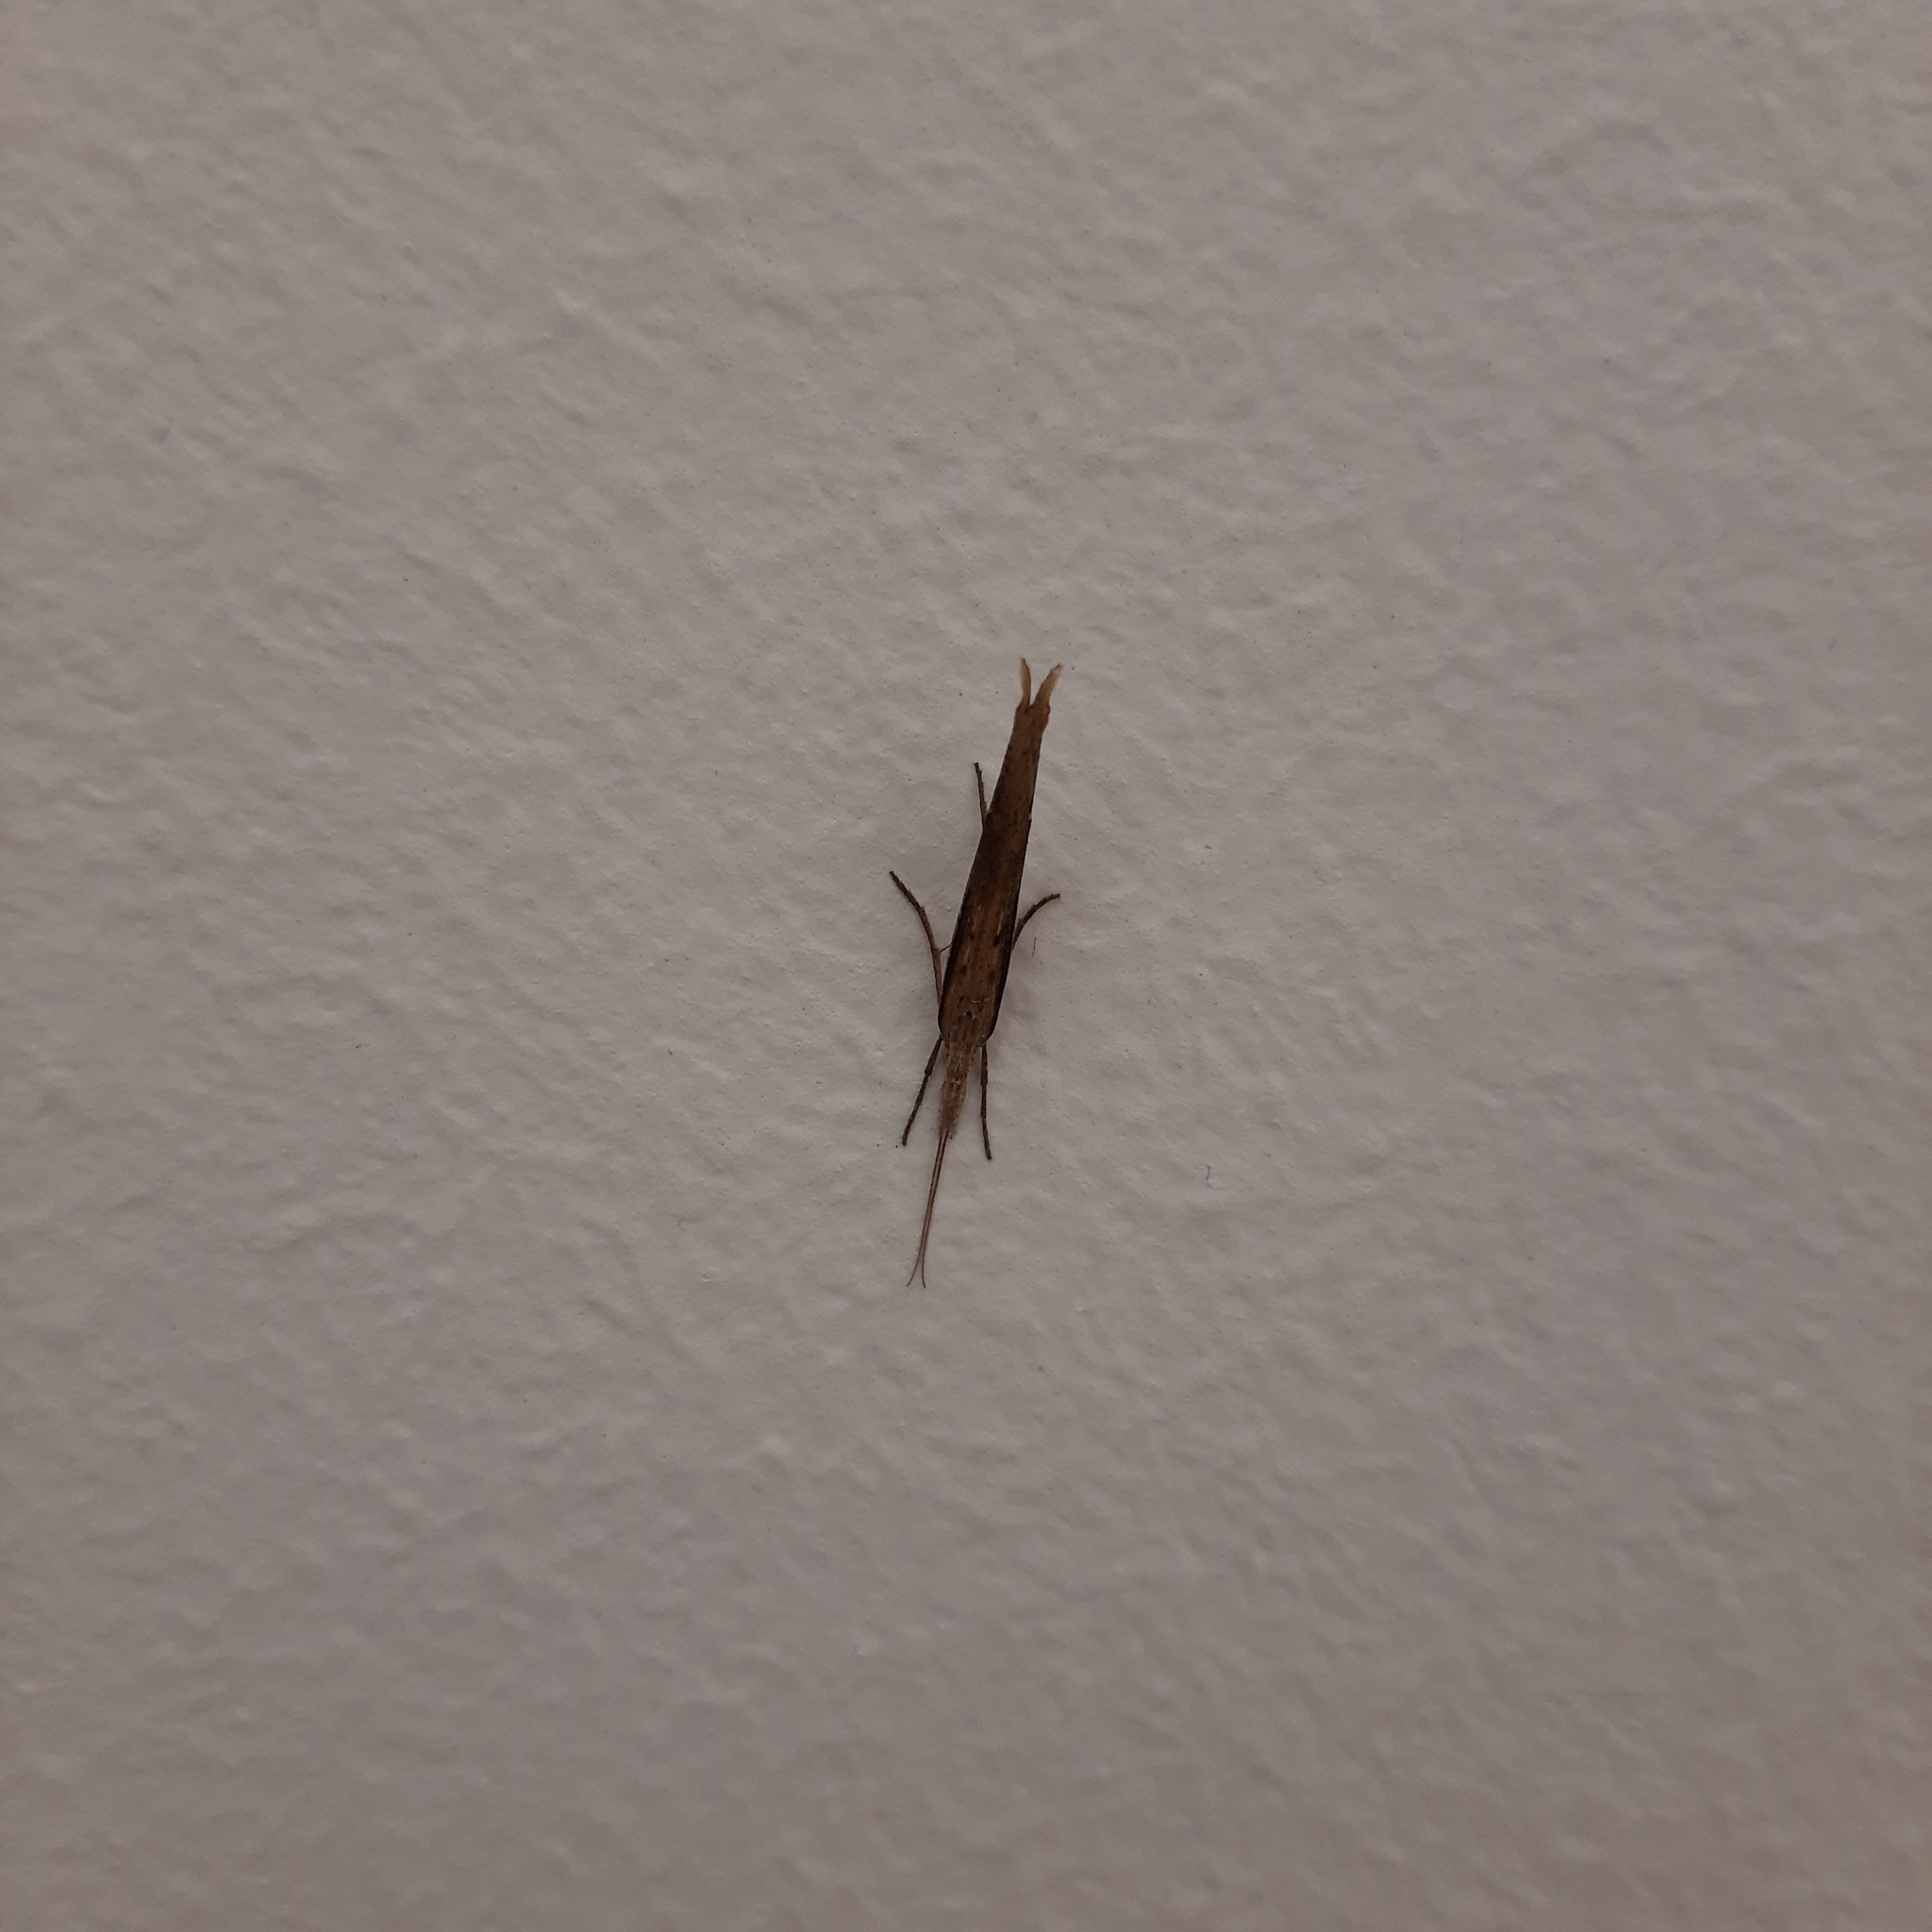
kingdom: Animalia
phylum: Arthropoda
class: Insecta
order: Lepidoptera
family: Ypsolophidae
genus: Ypsolopha
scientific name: Ypsolopha mucronella
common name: Spindle smudge
